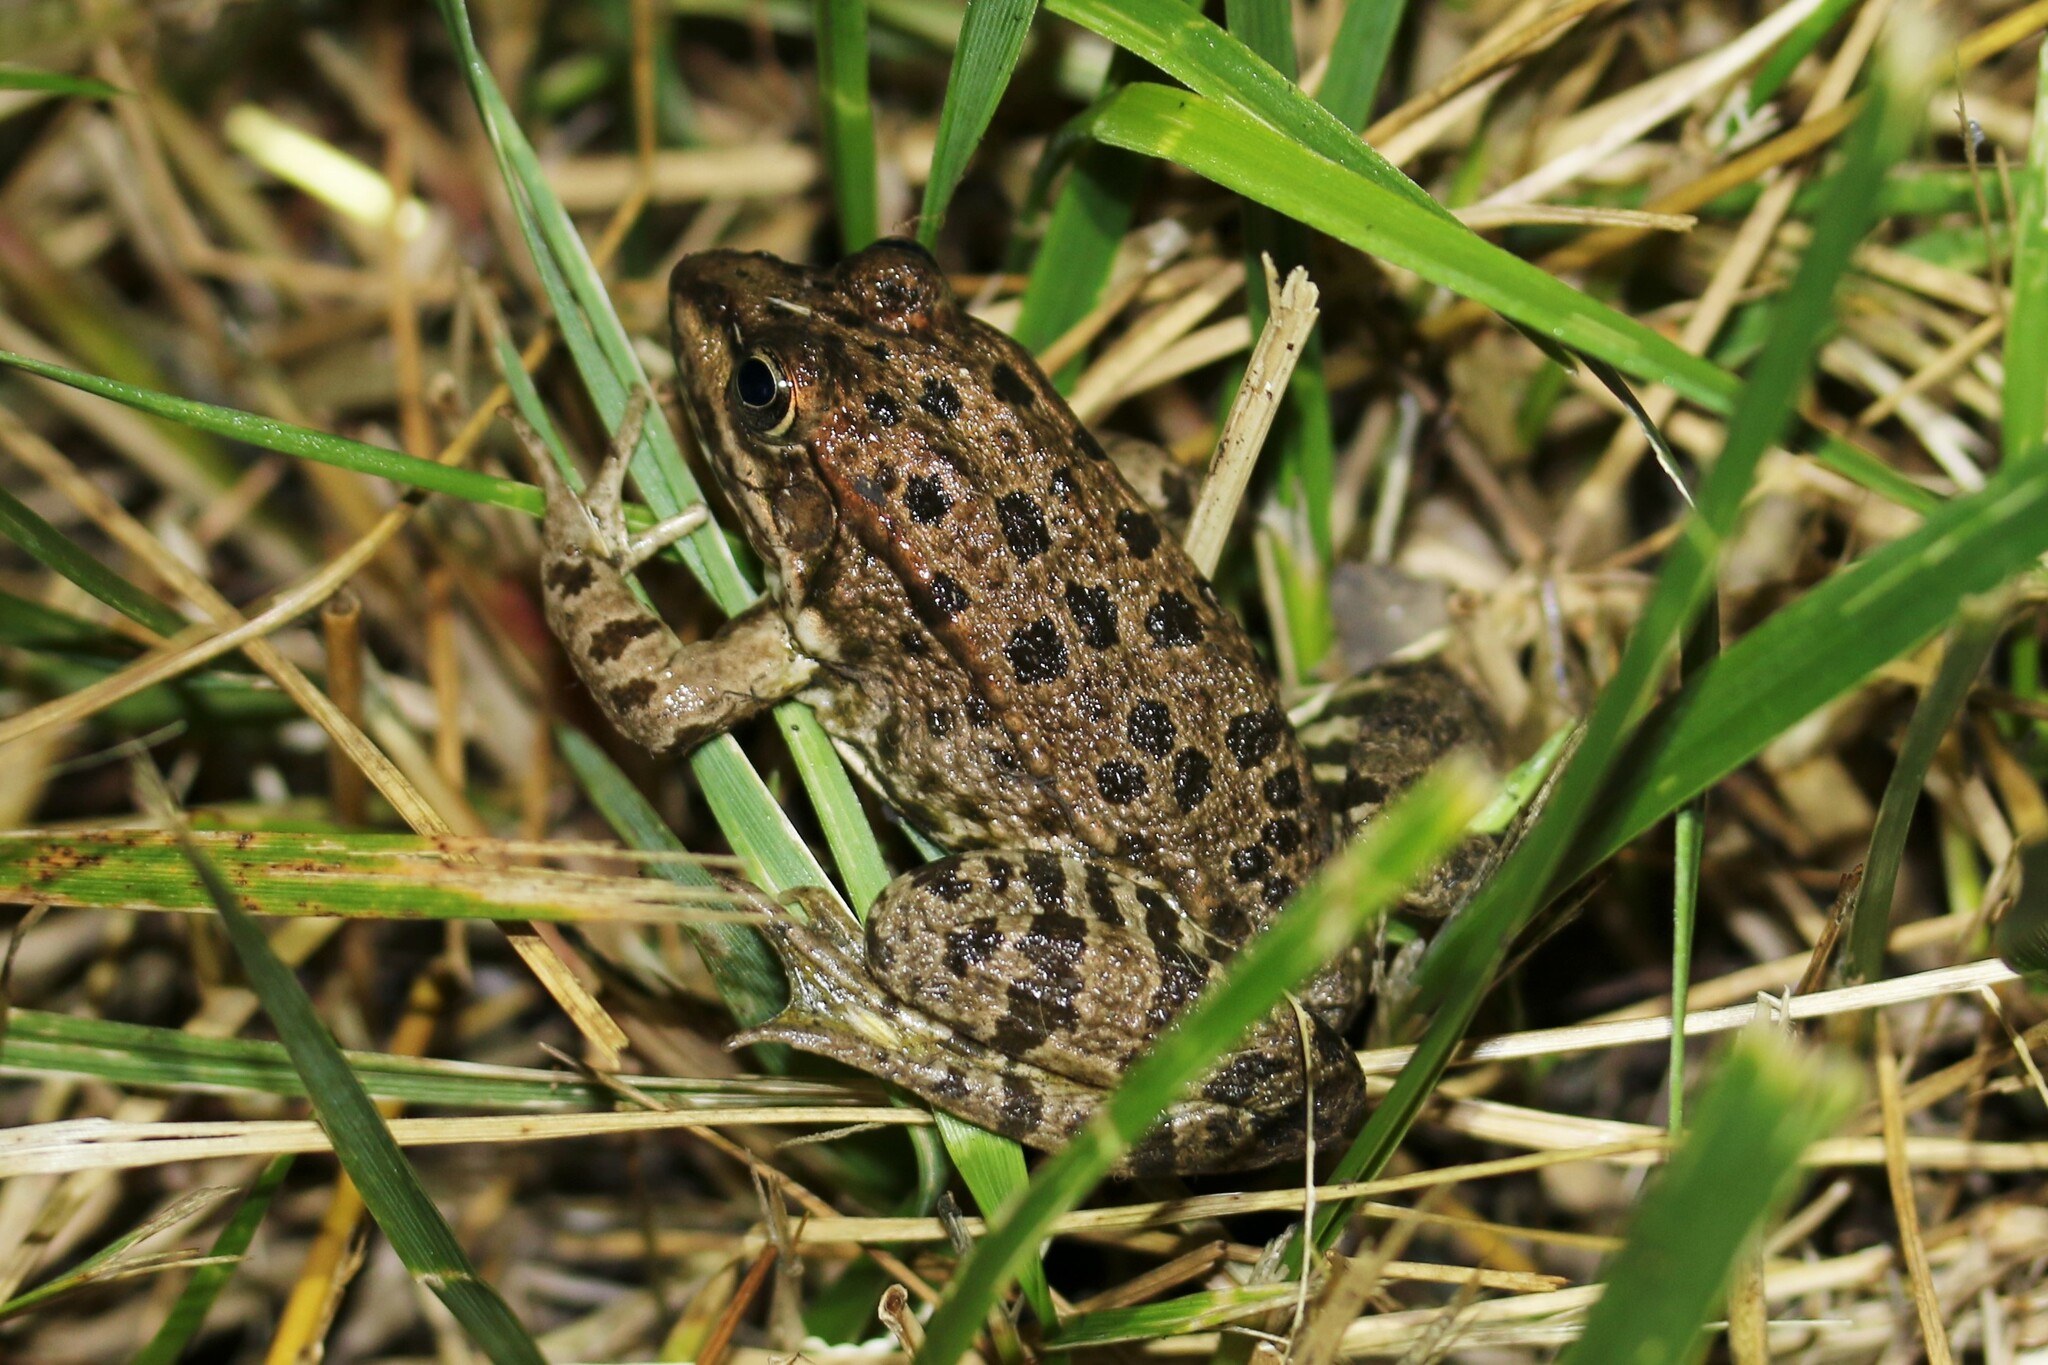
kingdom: Animalia
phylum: Chordata
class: Amphibia
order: Anura
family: Ranidae
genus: Pelophylax
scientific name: Pelophylax
